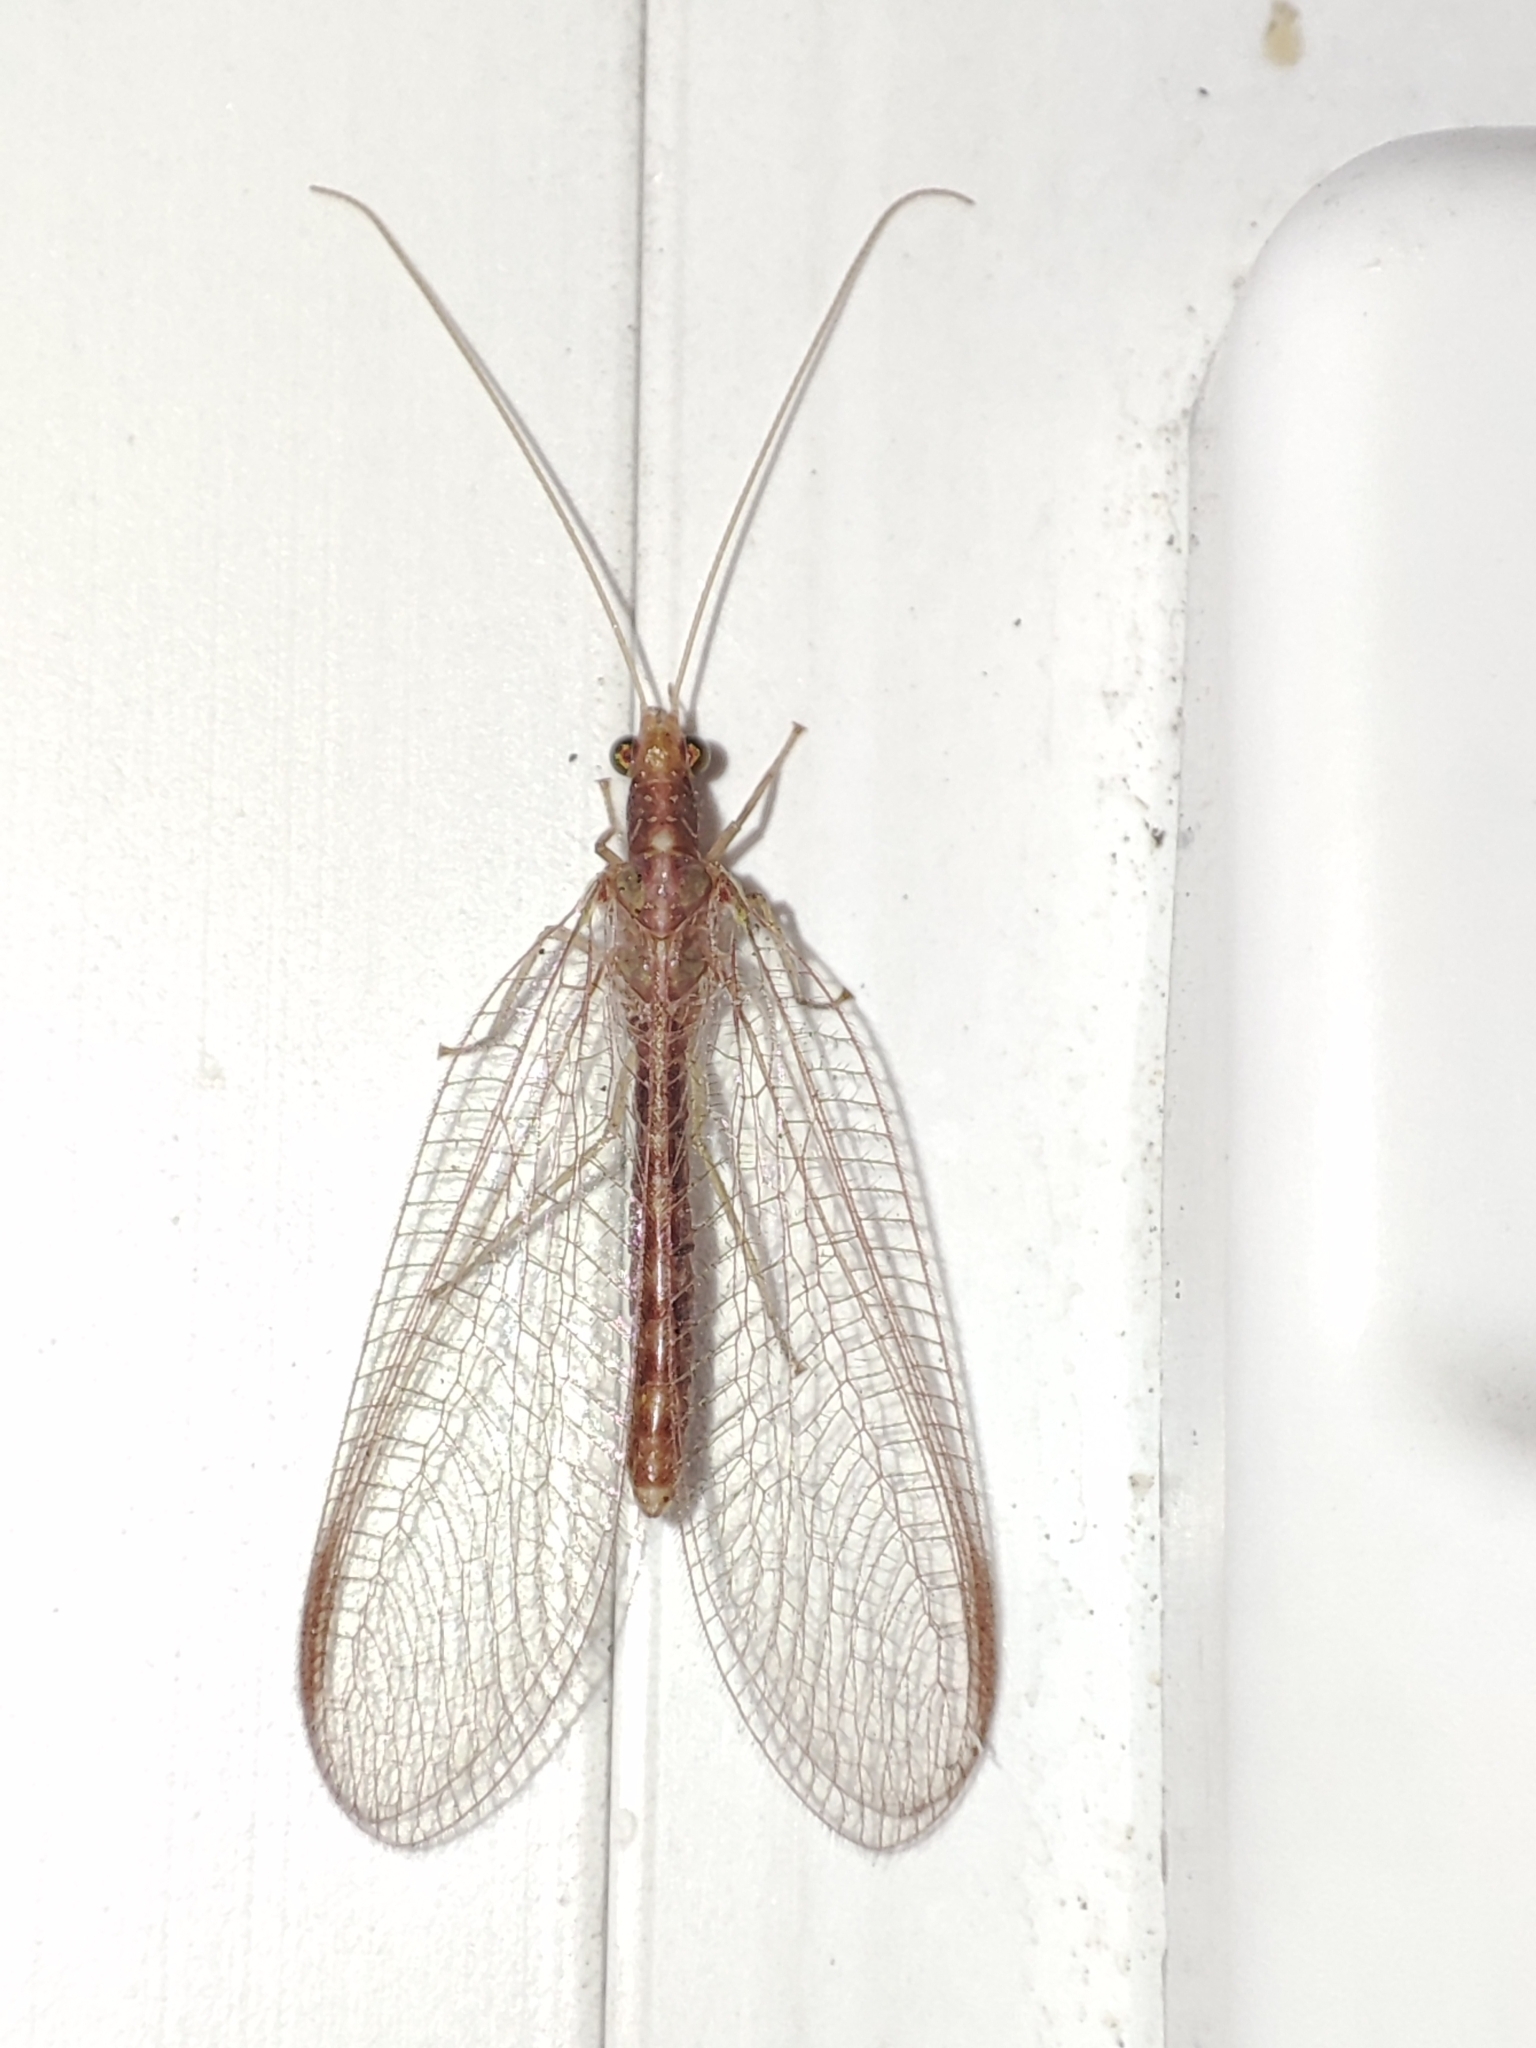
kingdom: Animalia
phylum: Arthropoda
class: Insecta
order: Neuroptera
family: Chrysopidae
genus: Chrysoperla
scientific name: Chrysoperla
